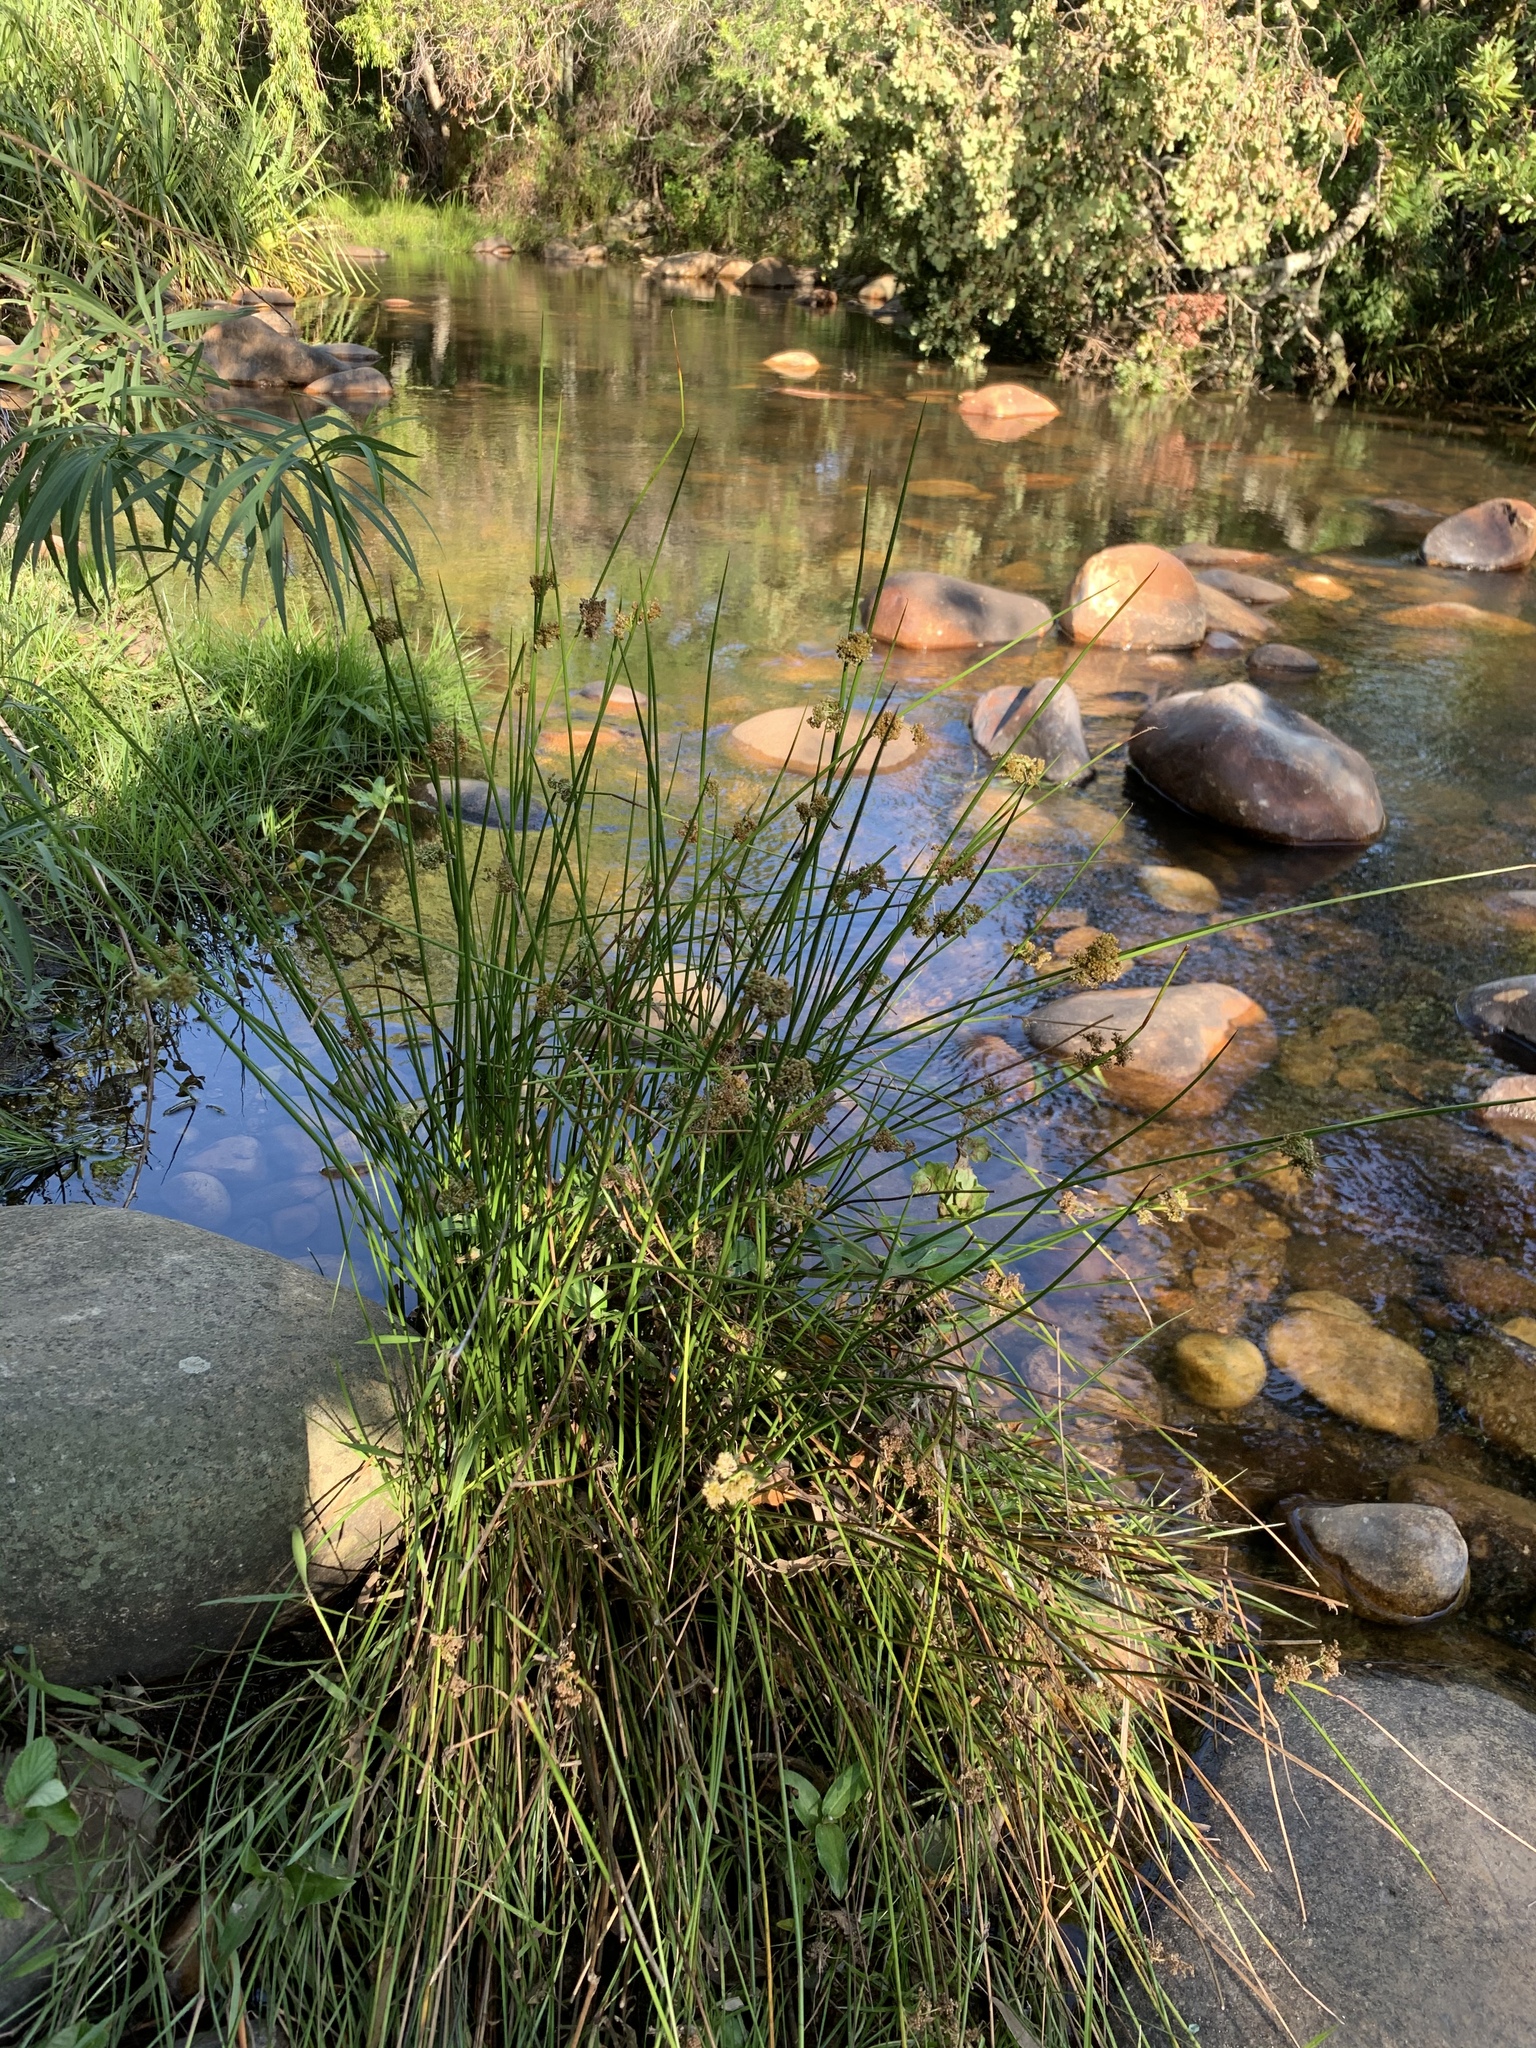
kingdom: Plantae
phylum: Tracheophyta
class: Liliopsida
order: Poales
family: Juncaceae
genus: Juncus
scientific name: Juncus effusus
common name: Soft rush
